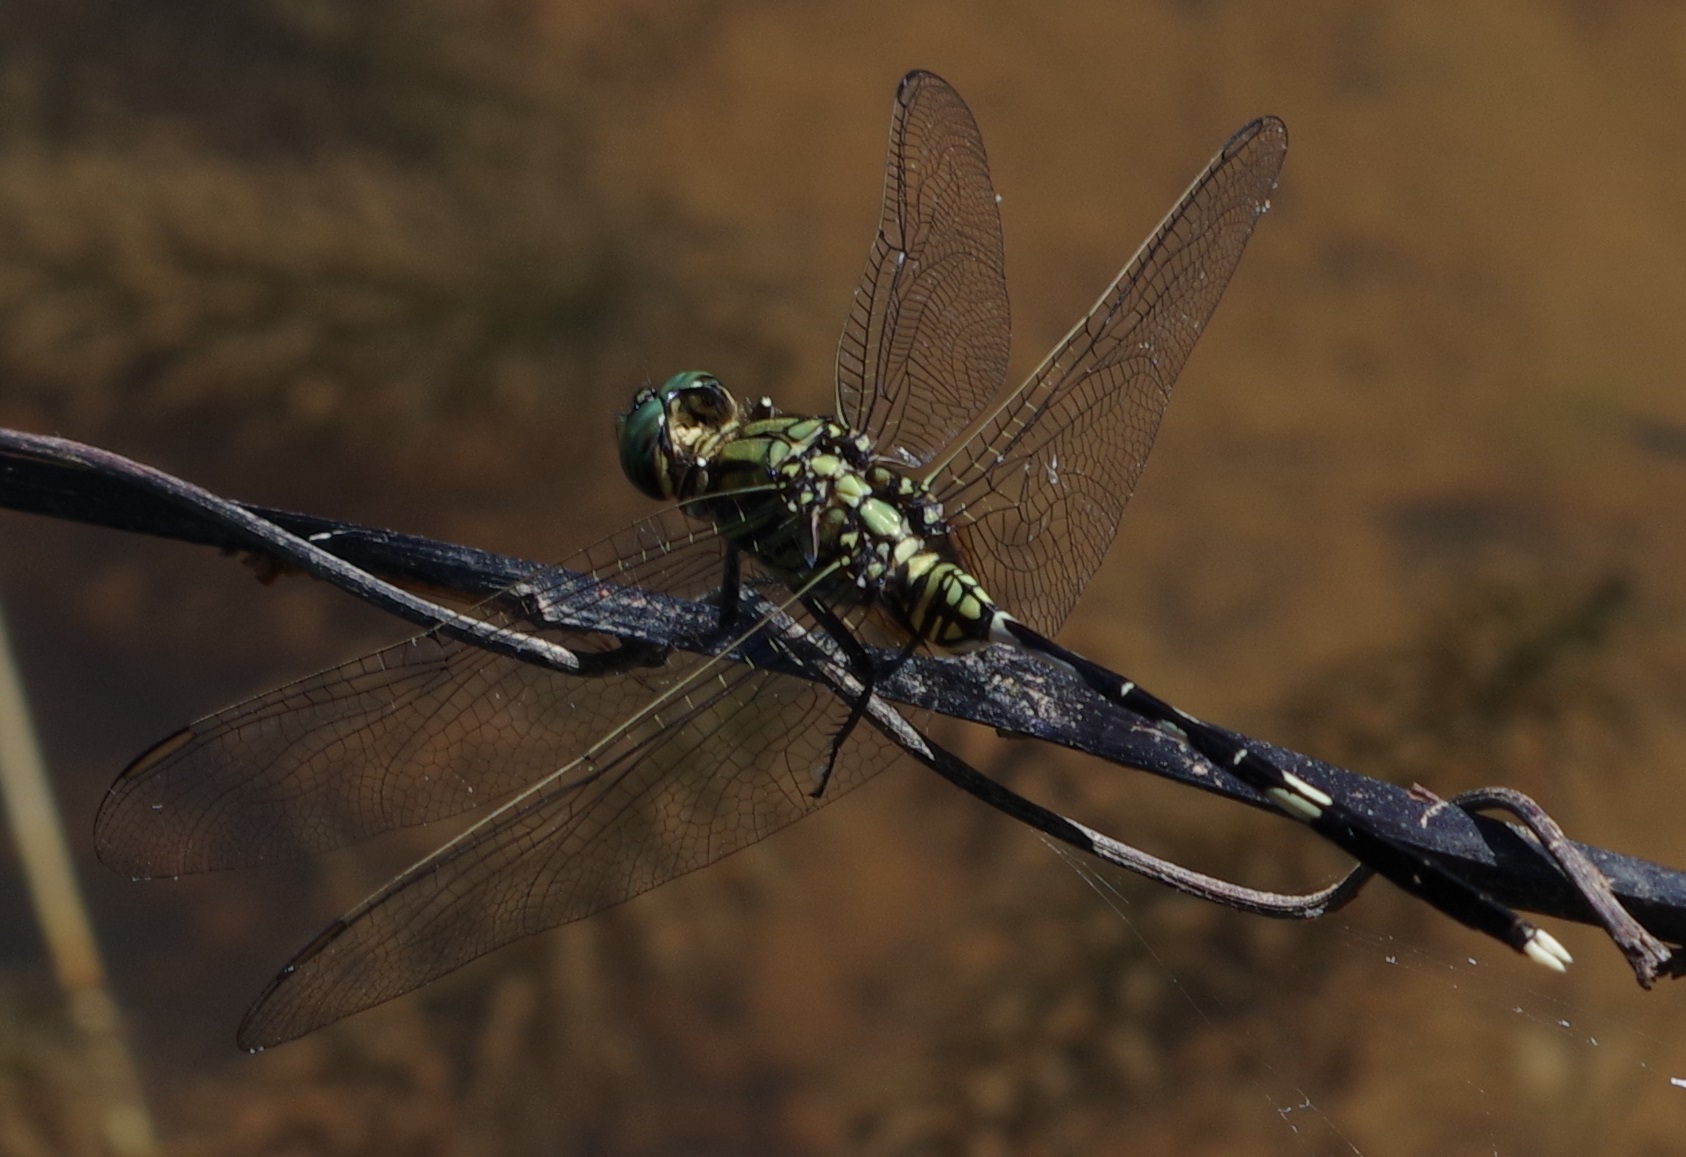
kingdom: Animalia
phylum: Arthropoda
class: Insecta
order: Odonata
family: Libellulidae
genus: Orthetrum
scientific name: Orthetrum sabina
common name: Slender skimmer
